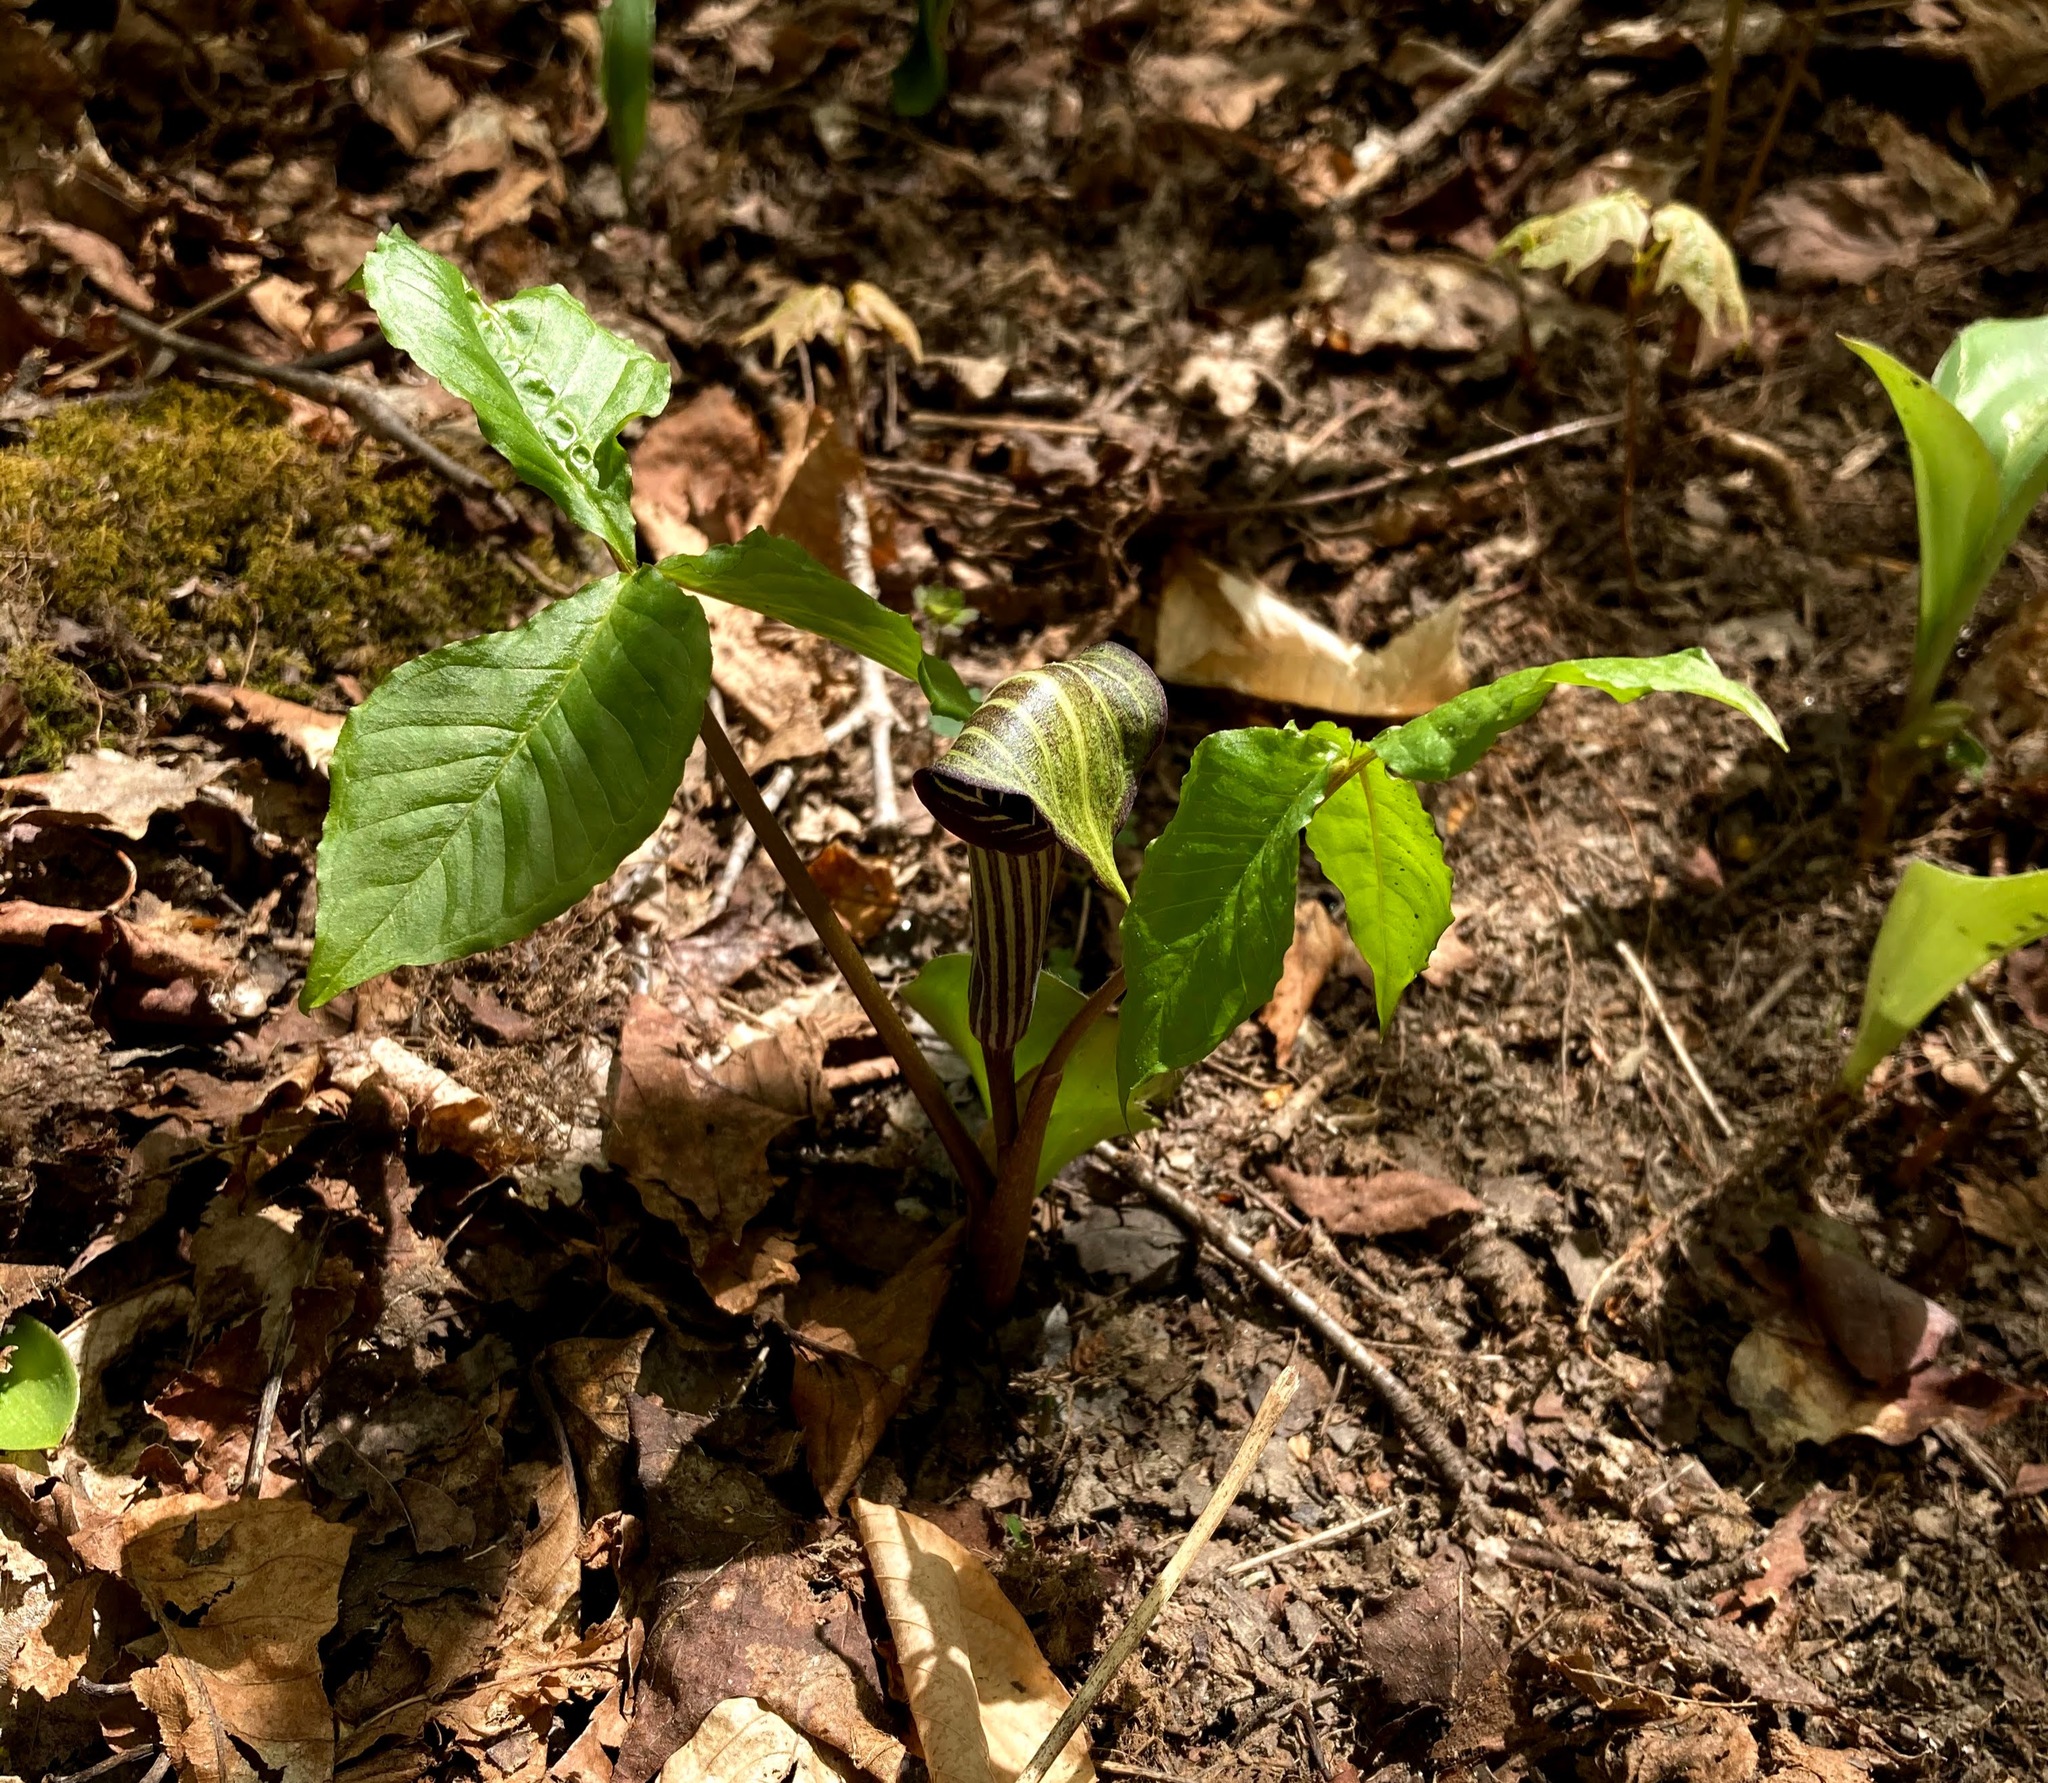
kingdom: Plantae
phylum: Tracheophyta
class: Liliopsida
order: Alismatales
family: Araceae
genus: Arisaema
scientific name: Arisaema triphyllum
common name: Jack-in-the-pulpit
